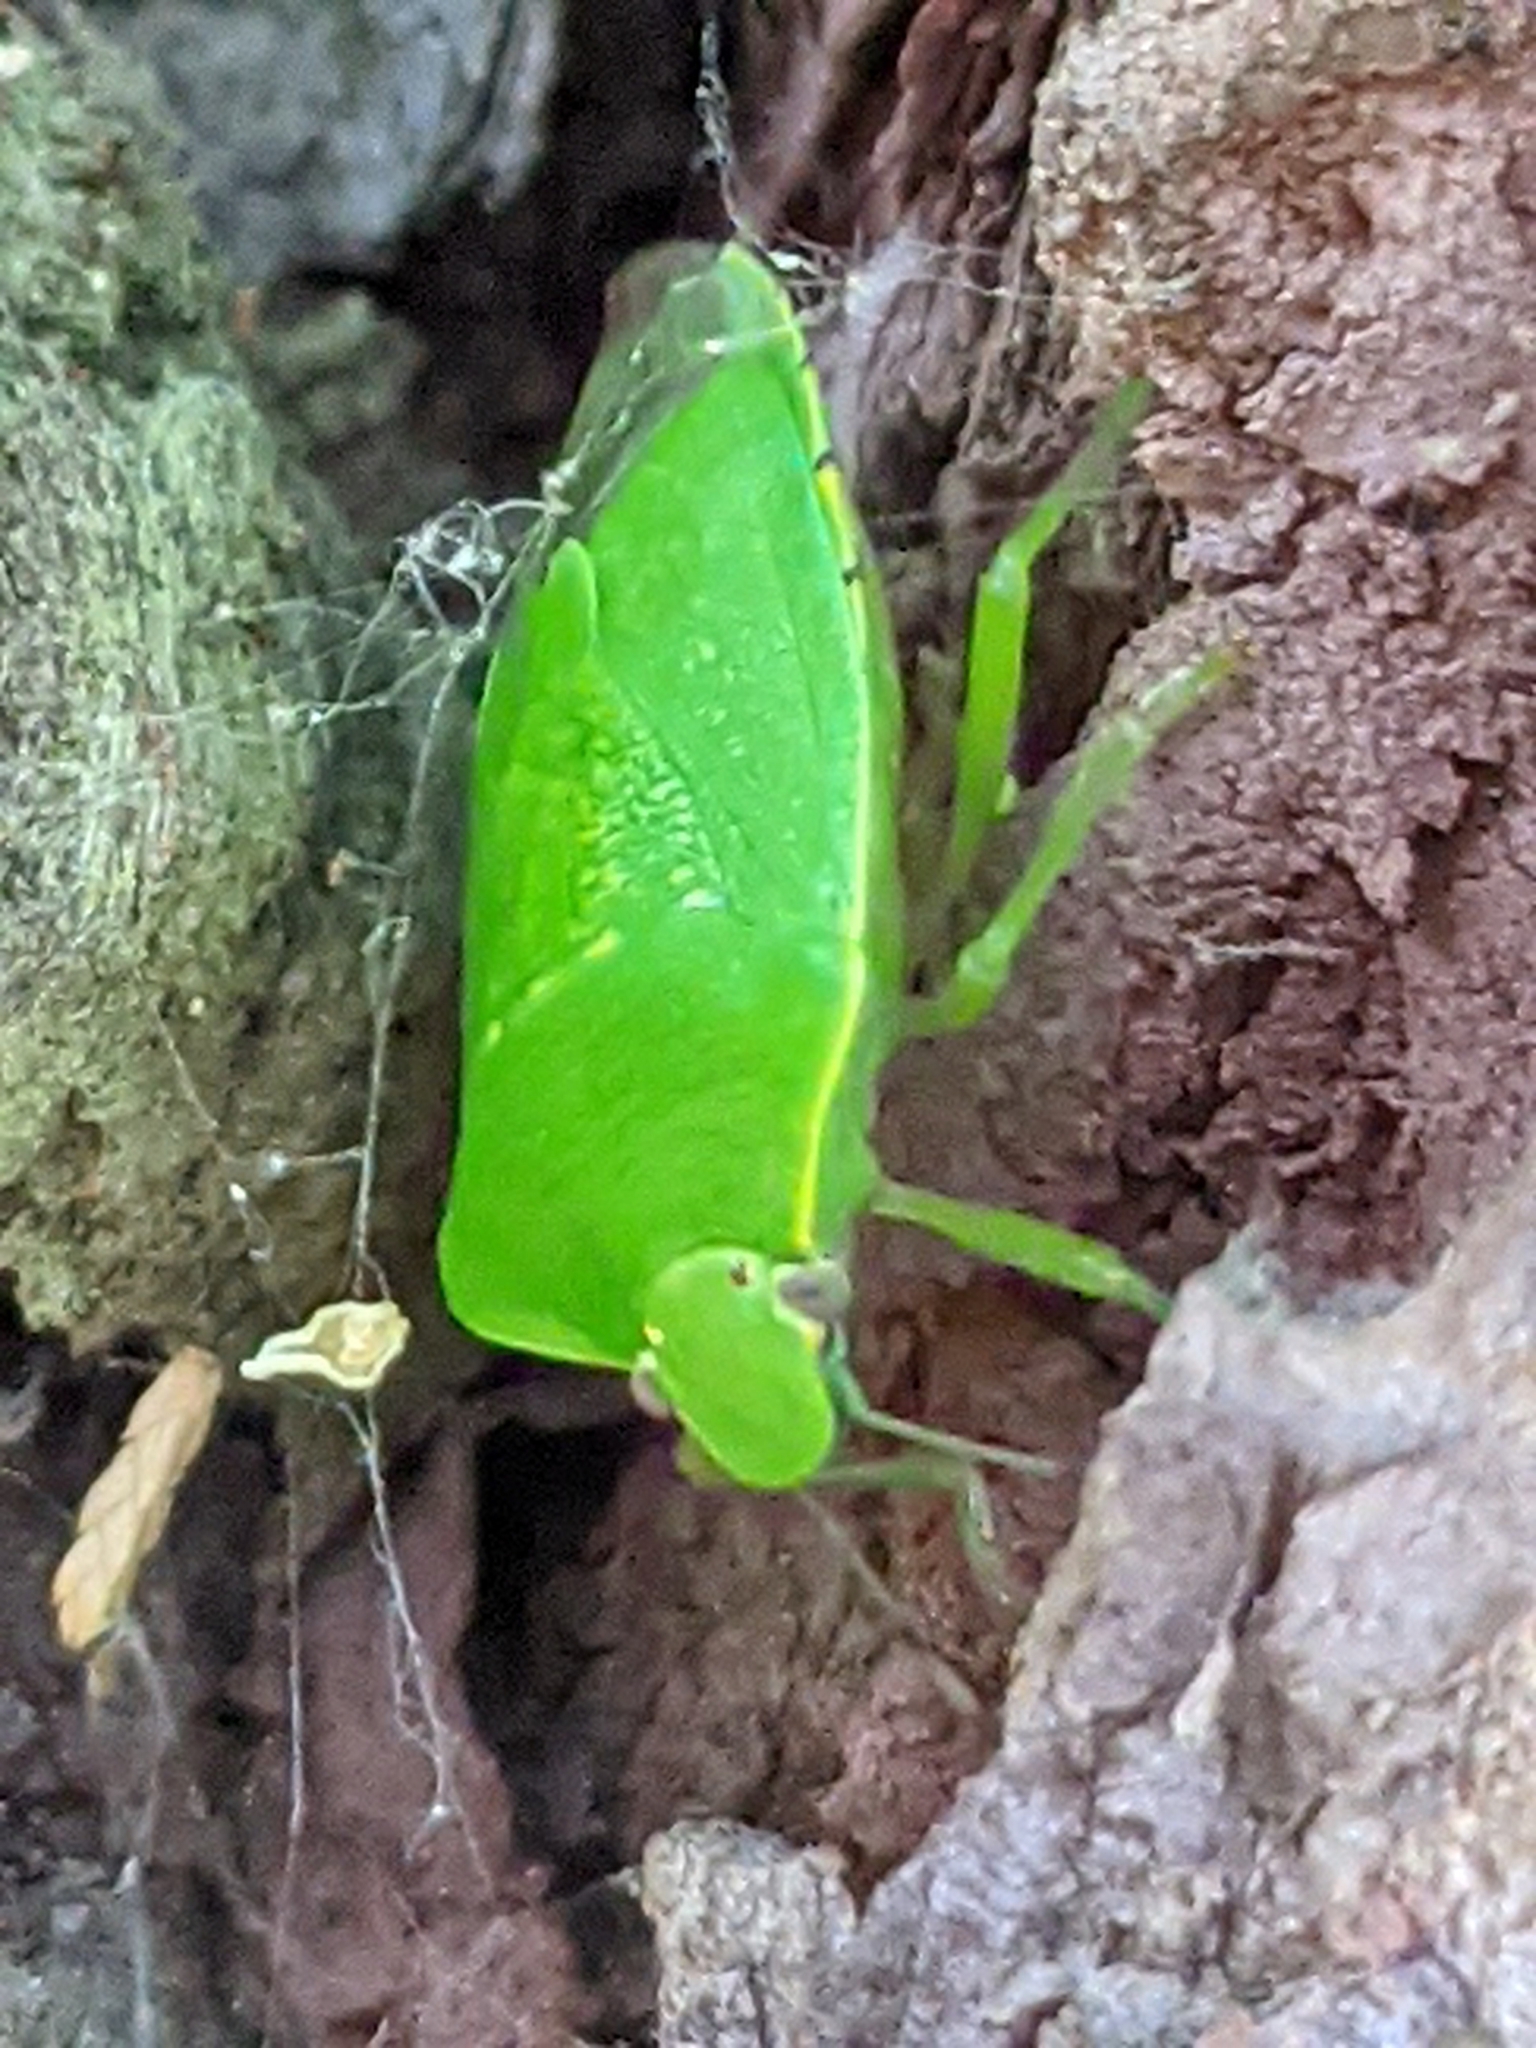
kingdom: Animalia
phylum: Arthropoda
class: Insecta
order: Hemiptera
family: Pentatomidae
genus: Chinavia
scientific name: Chinavia hilaris
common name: Green stink bug
